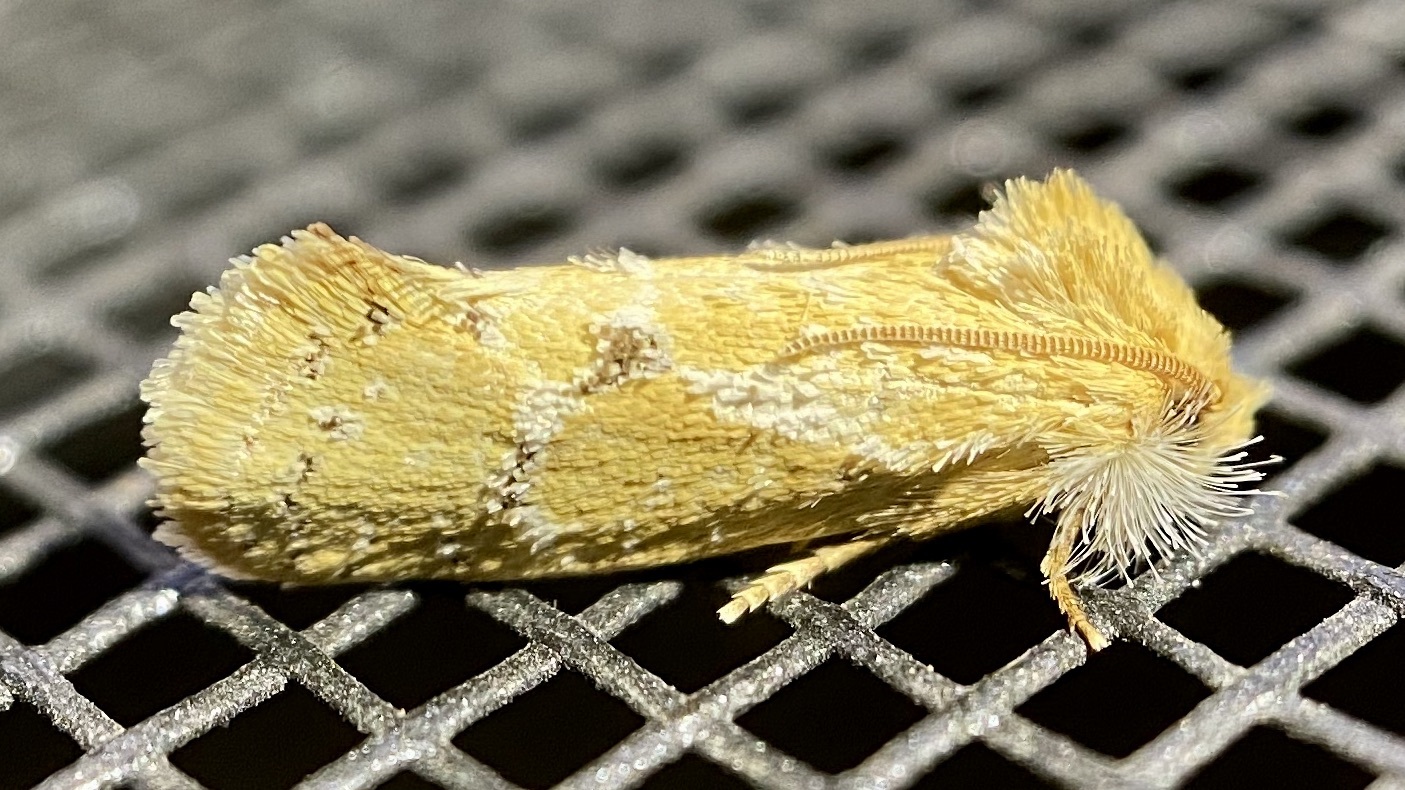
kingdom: Animalia
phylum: Arthropoda
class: Insecta
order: Lepidoptera
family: Tineidae
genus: Acrolophus
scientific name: Acrolophus laticapitana
